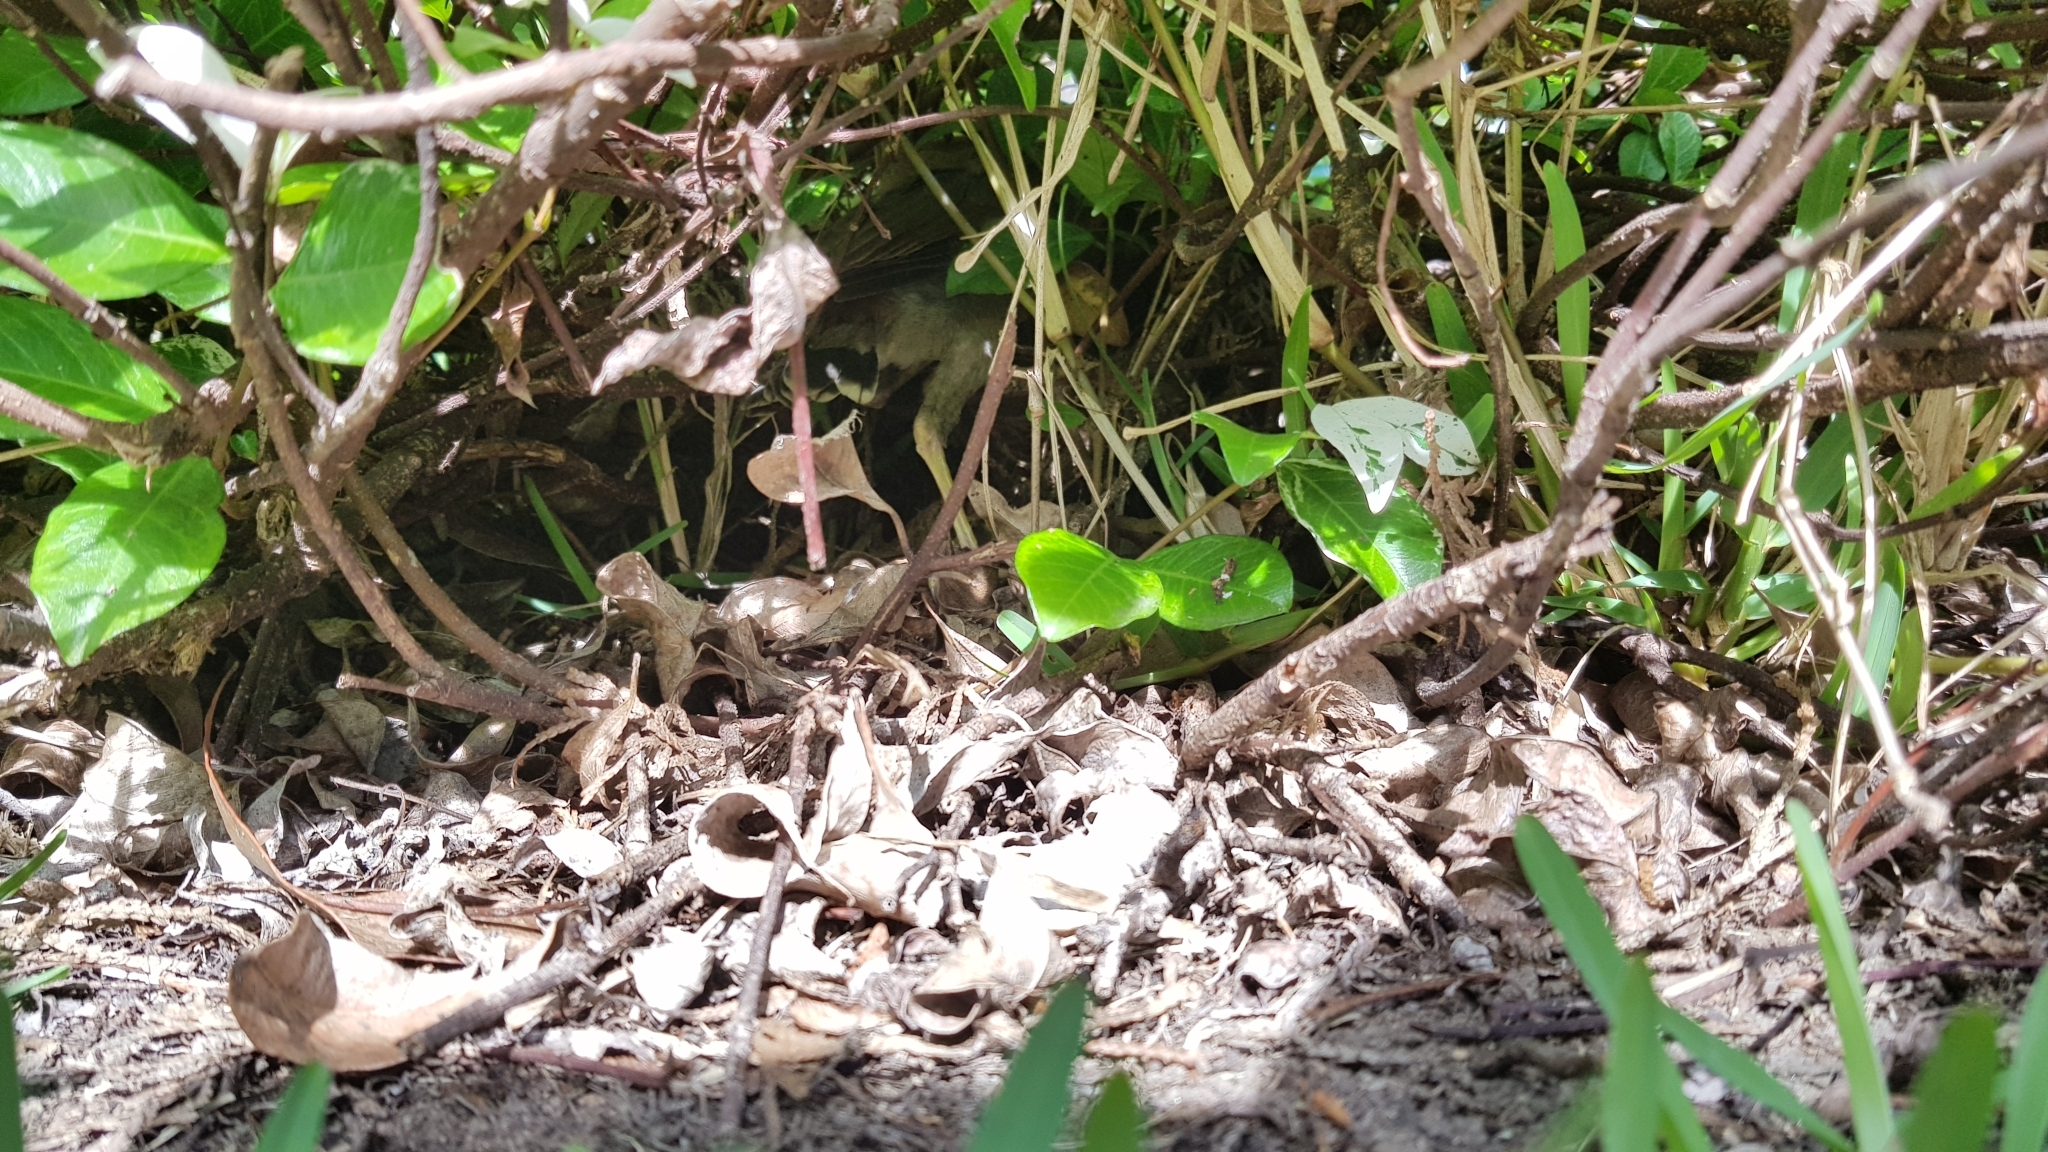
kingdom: Animalia
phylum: Chordata
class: Aves
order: Passeriformes
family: Sturnidae
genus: Acridotheres
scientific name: Acridotheres tristis
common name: Common myna
